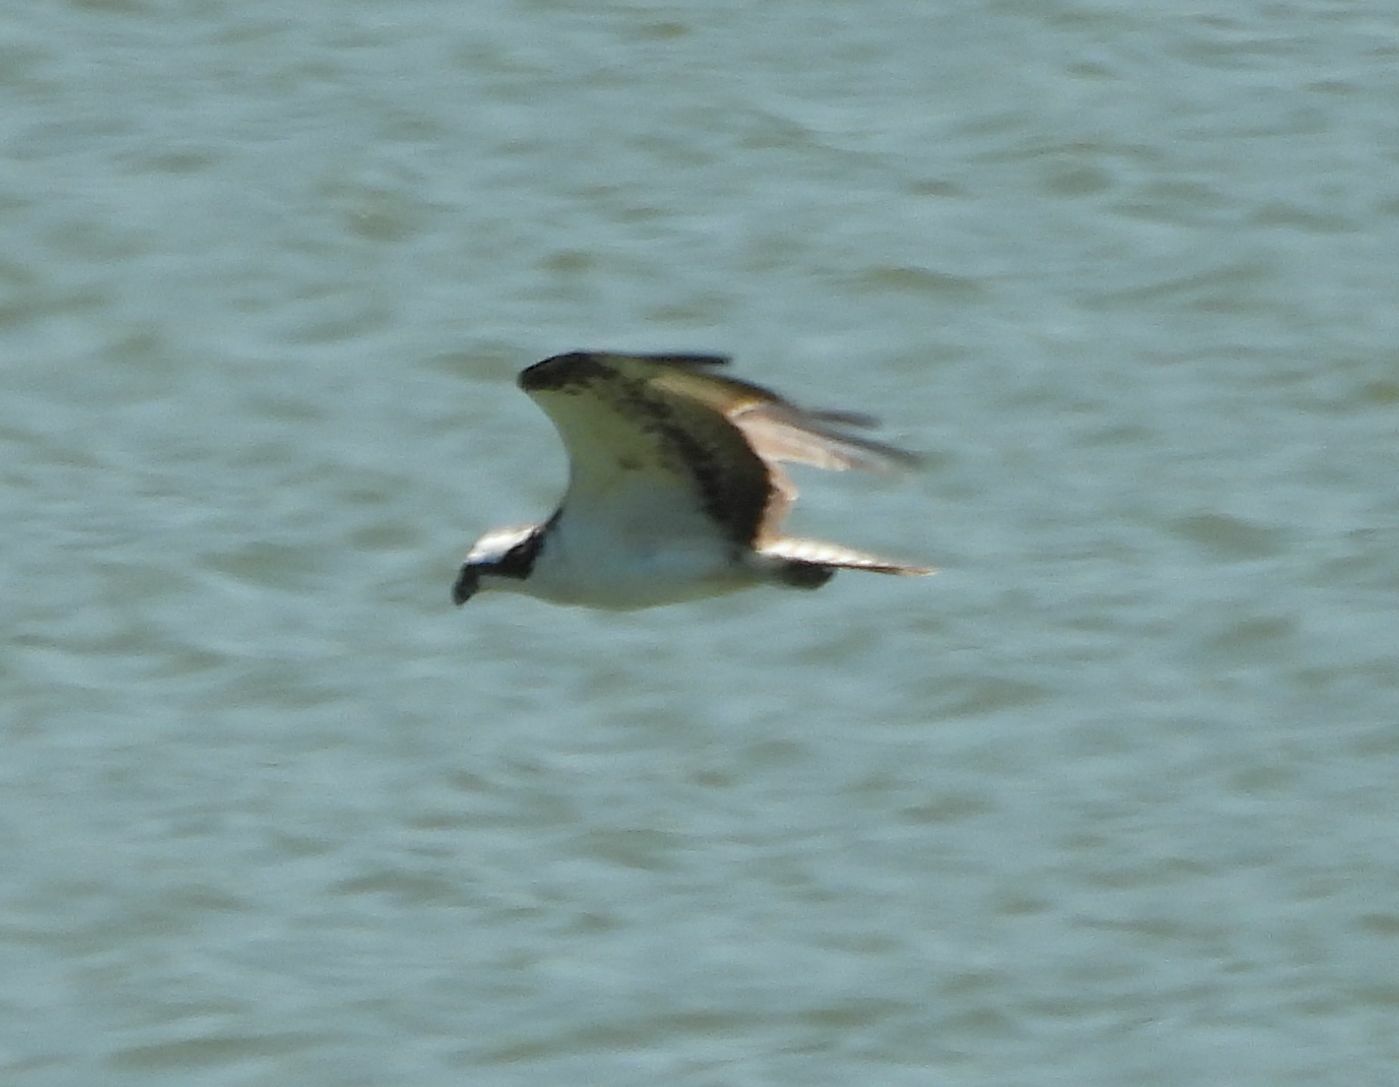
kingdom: Animalia
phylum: Chordata
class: Aves
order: Accipitriformes
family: Pandionidae
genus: Pandion
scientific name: Pandion haliaetus
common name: Osprey
